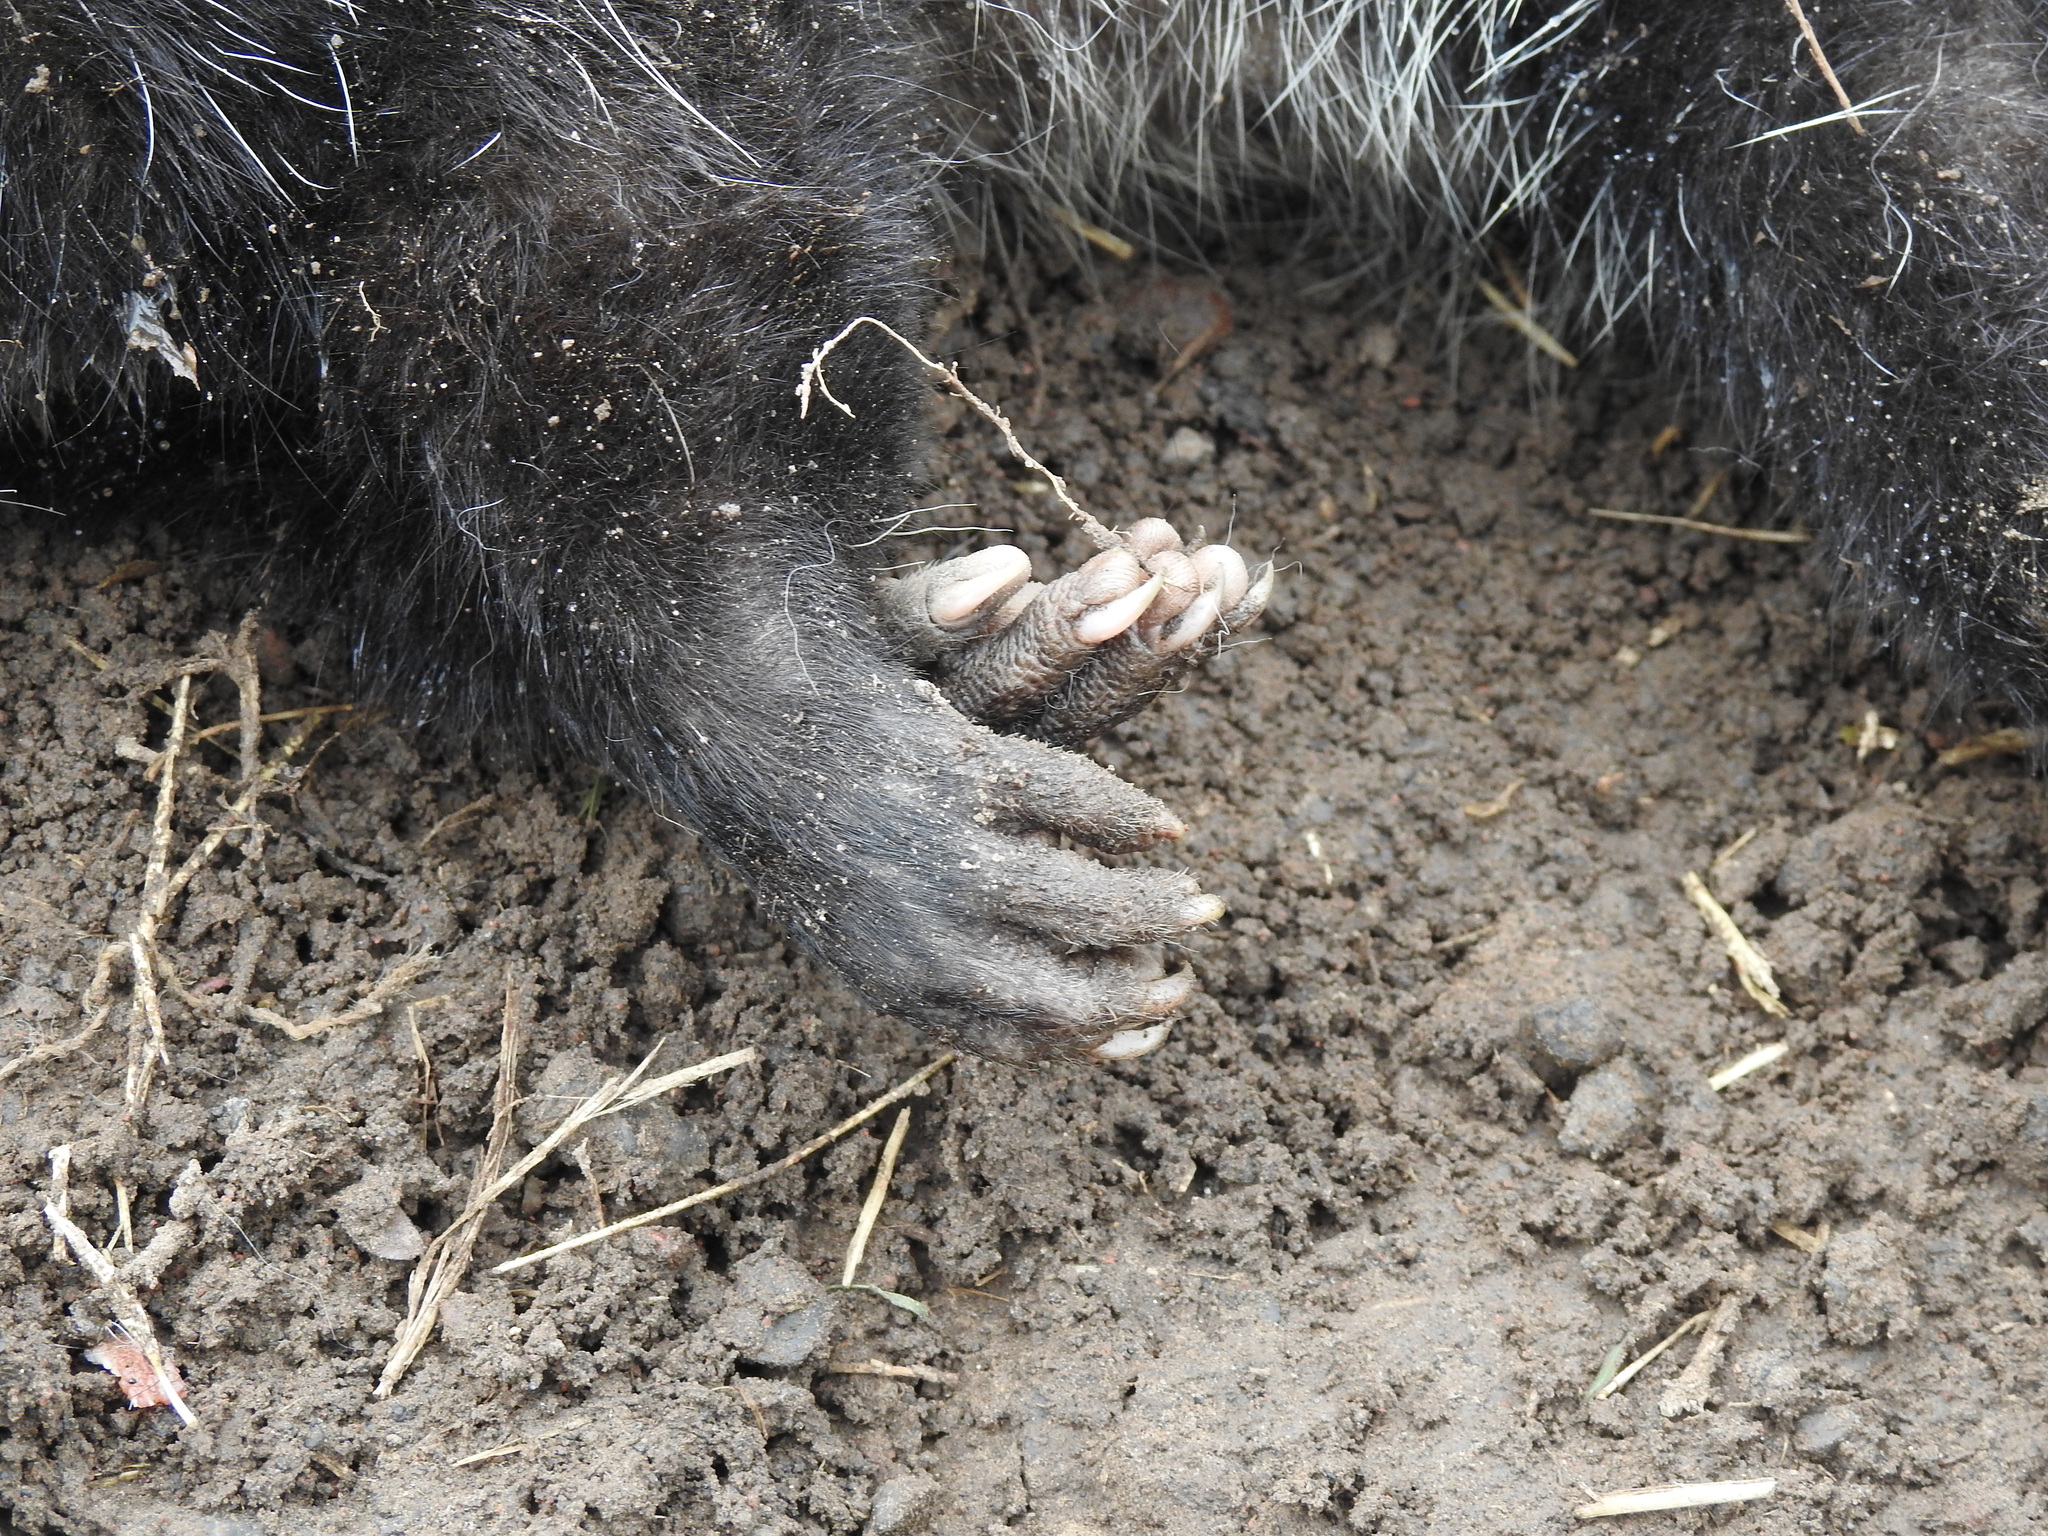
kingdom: Animalia
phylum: Chordata
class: Mammalia
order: Didelphimorphia
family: Didelphidae
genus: Didelphis
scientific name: Didelphis albiventris
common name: White-eared opossum
